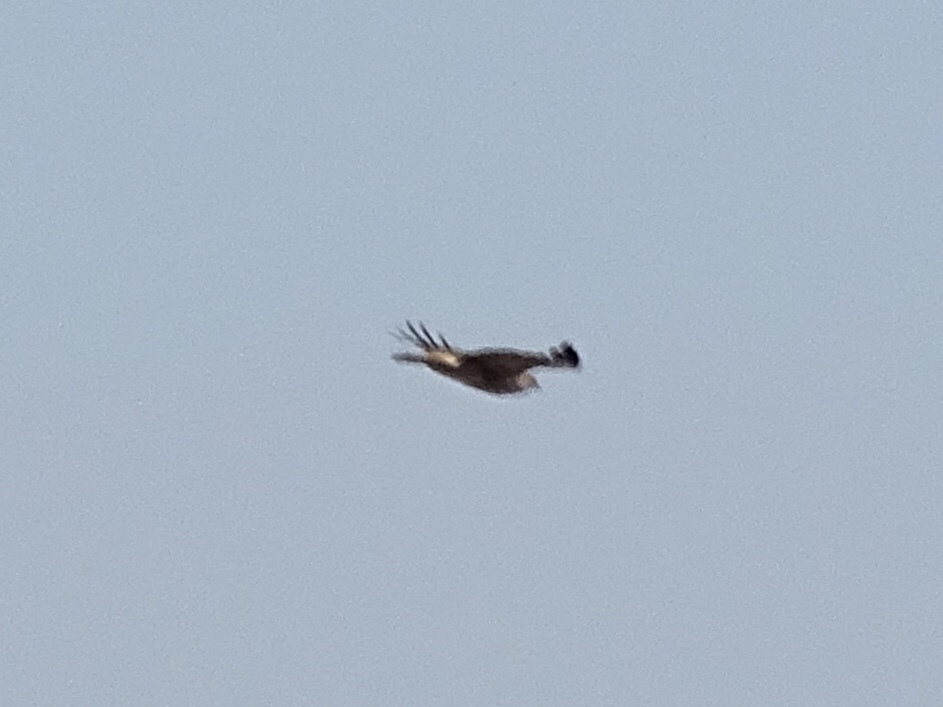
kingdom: Animalia
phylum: Chordata
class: Aves
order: Accipitriformes
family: Accipitridae
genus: Buteo
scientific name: Buteo jamaicensis
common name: Red-tailed hawk
